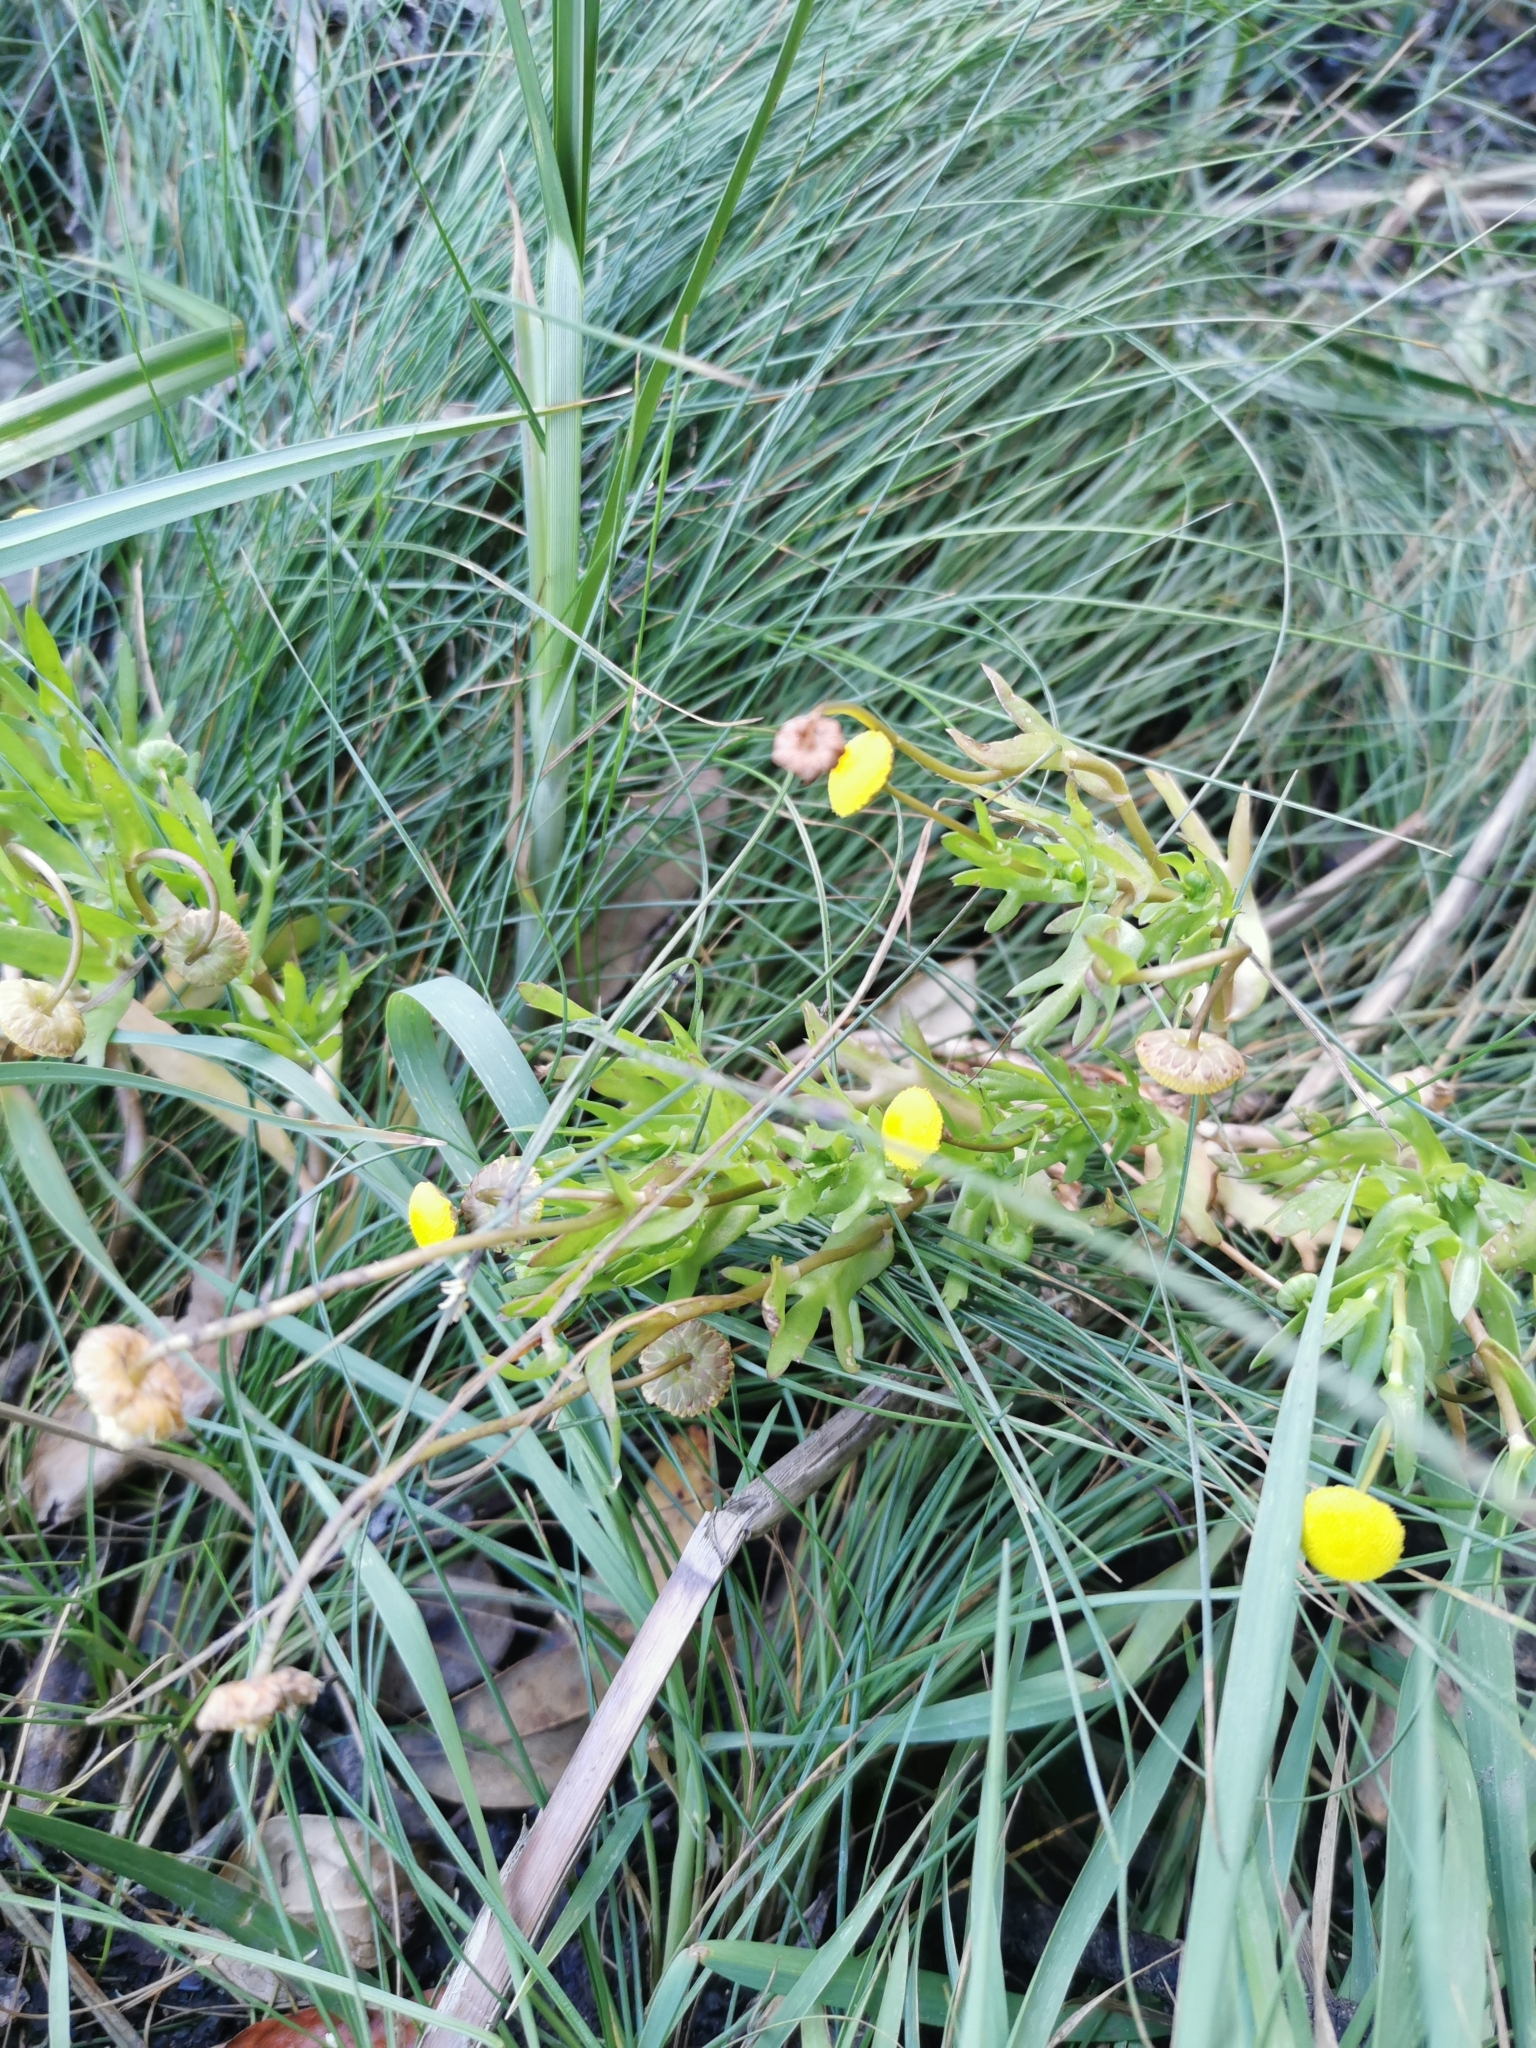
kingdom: Plantae
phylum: Tracheophyta
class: Magnoliopsida
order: Asterales
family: Asteraceae
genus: Cotula
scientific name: Cotula coronopifolia
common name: Buttonweed
